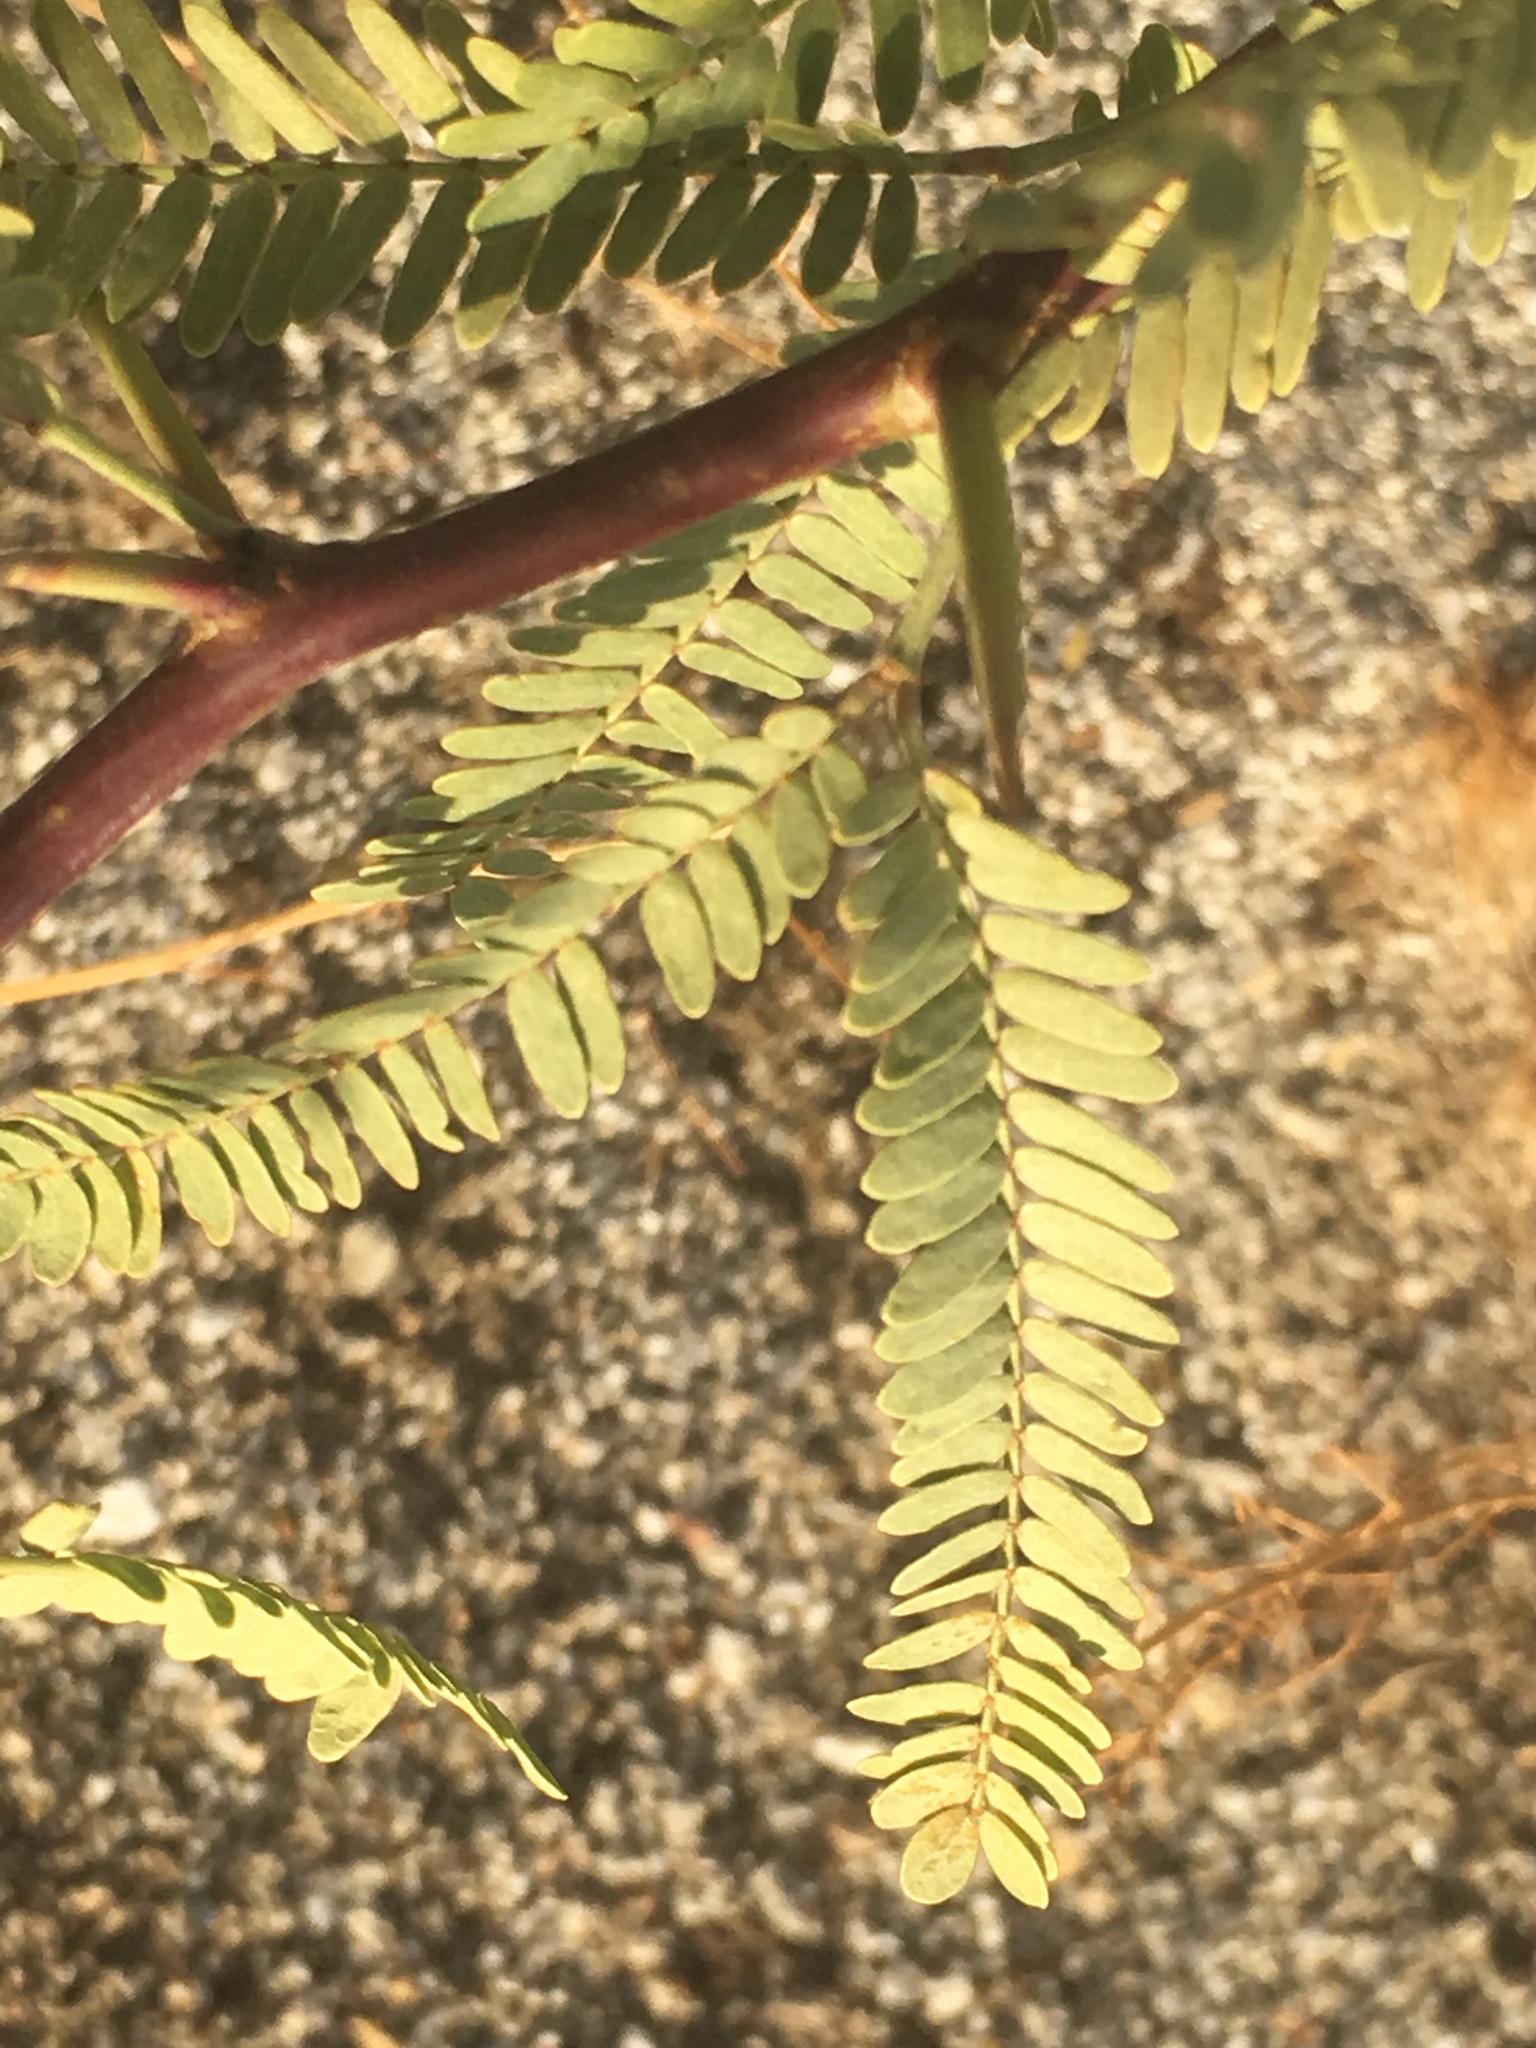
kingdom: Plantae
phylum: Tracheophyta
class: Magnoliopsida
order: Fabales
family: Fabaceae
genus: Prosopis
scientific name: Prosopis pubescens
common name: Screw-bean
